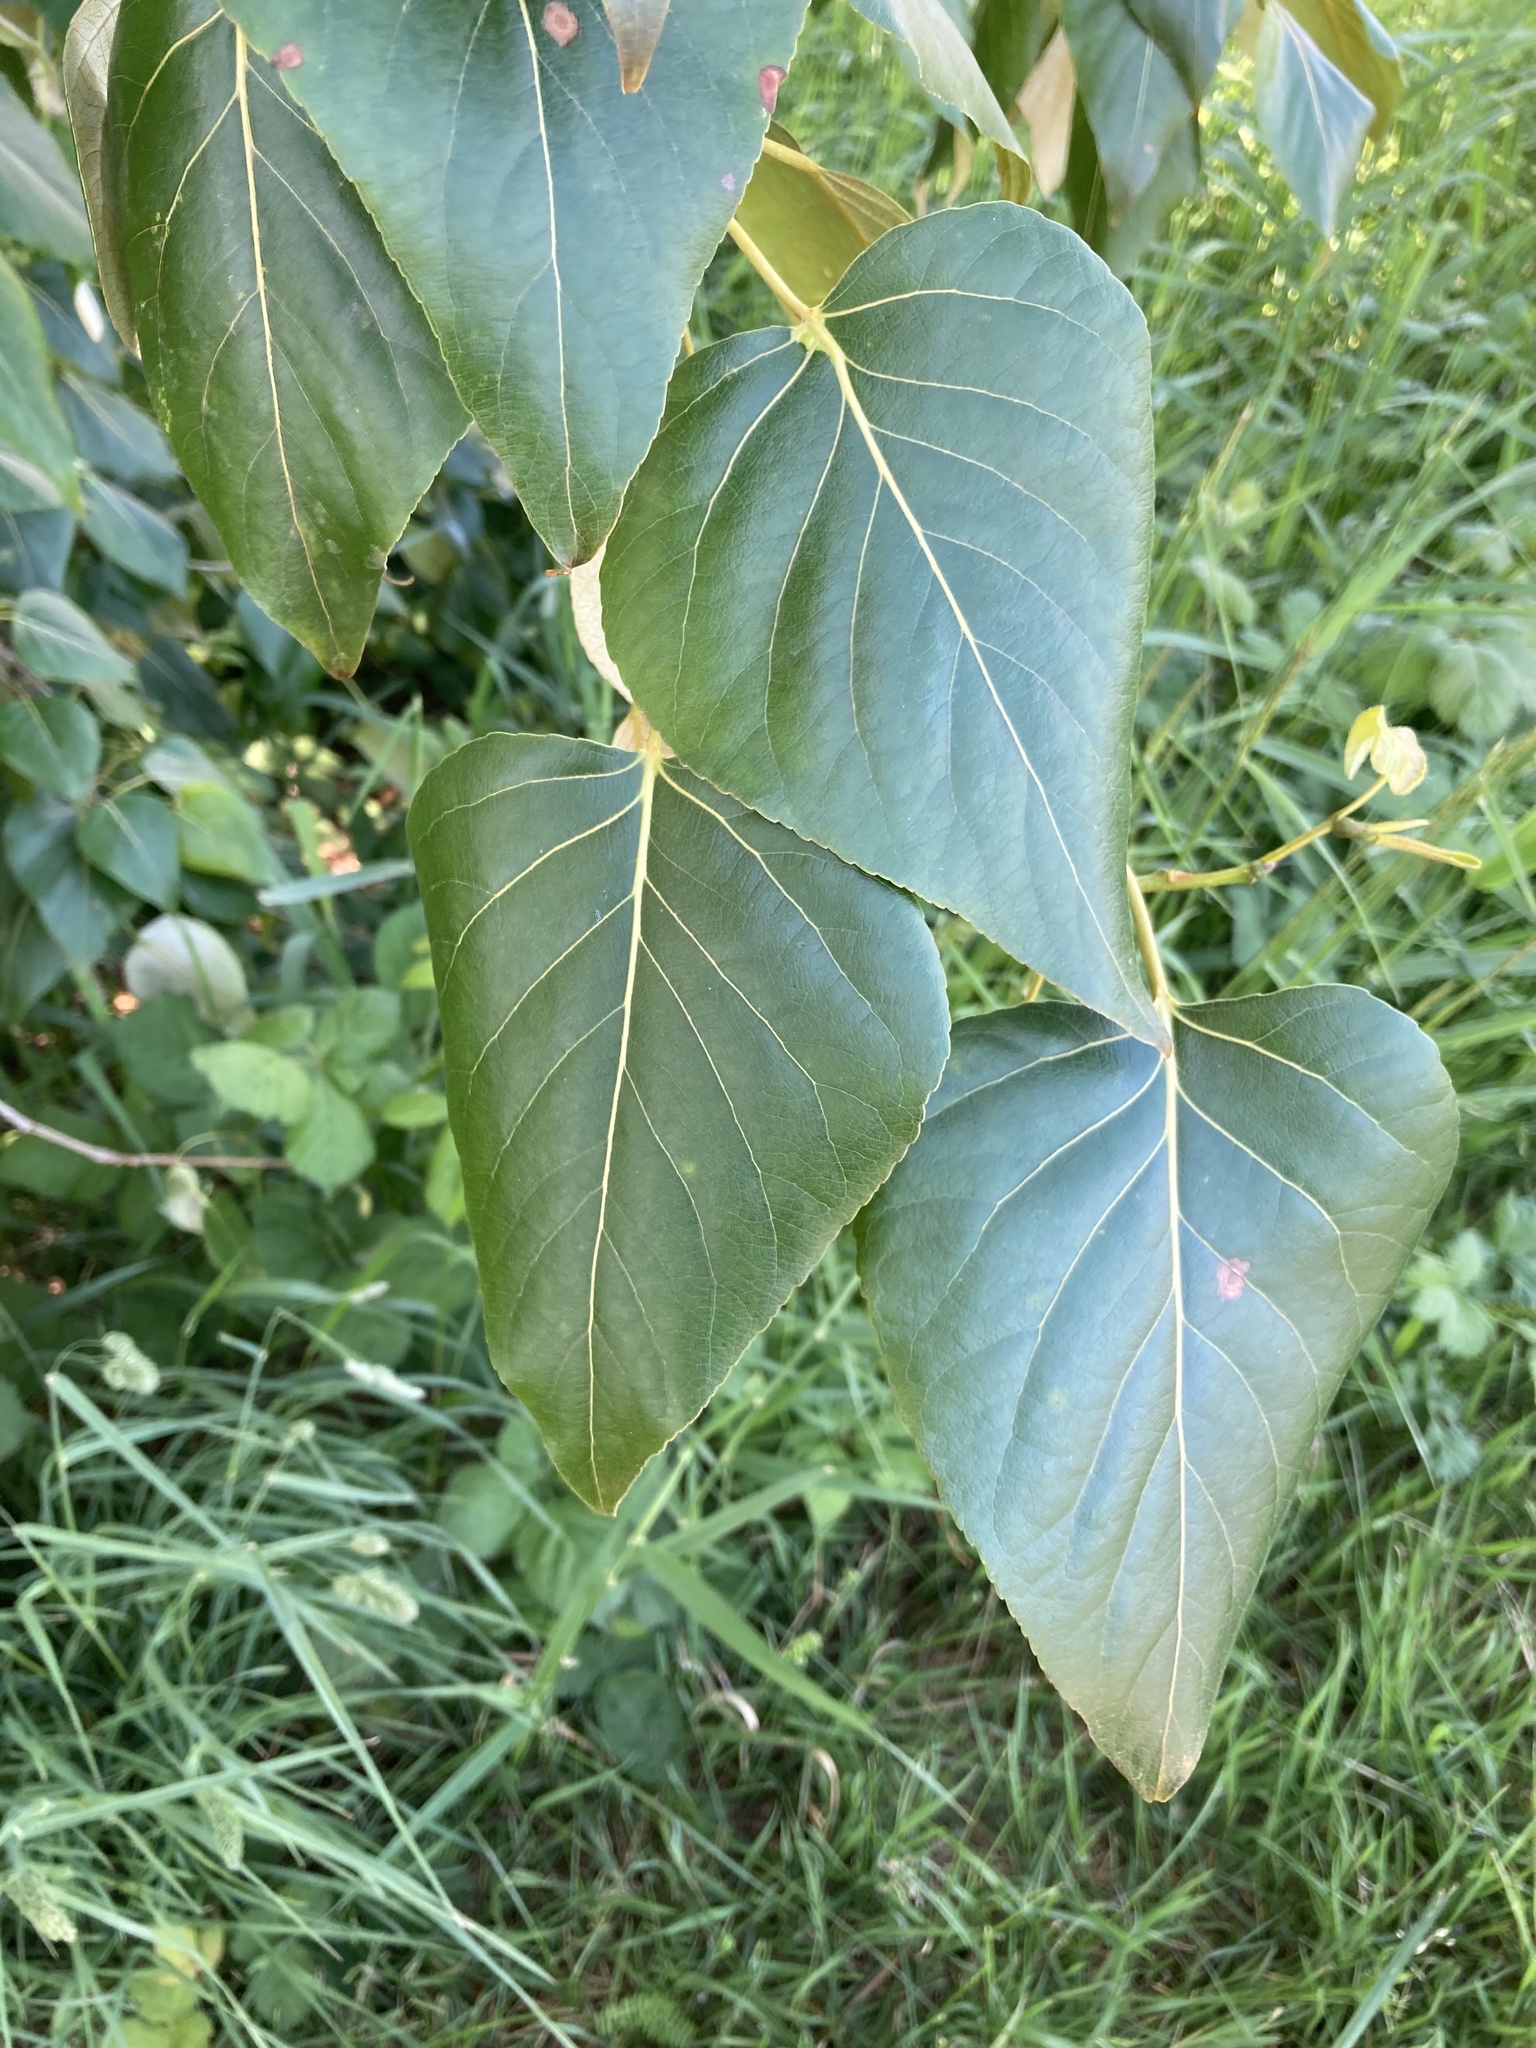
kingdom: Plantae
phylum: Tracheophyta
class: Magnoliopsida
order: Malpighiales
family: Salicaceae
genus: Populus
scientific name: Populus trichocarpa
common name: Black cottonwood
